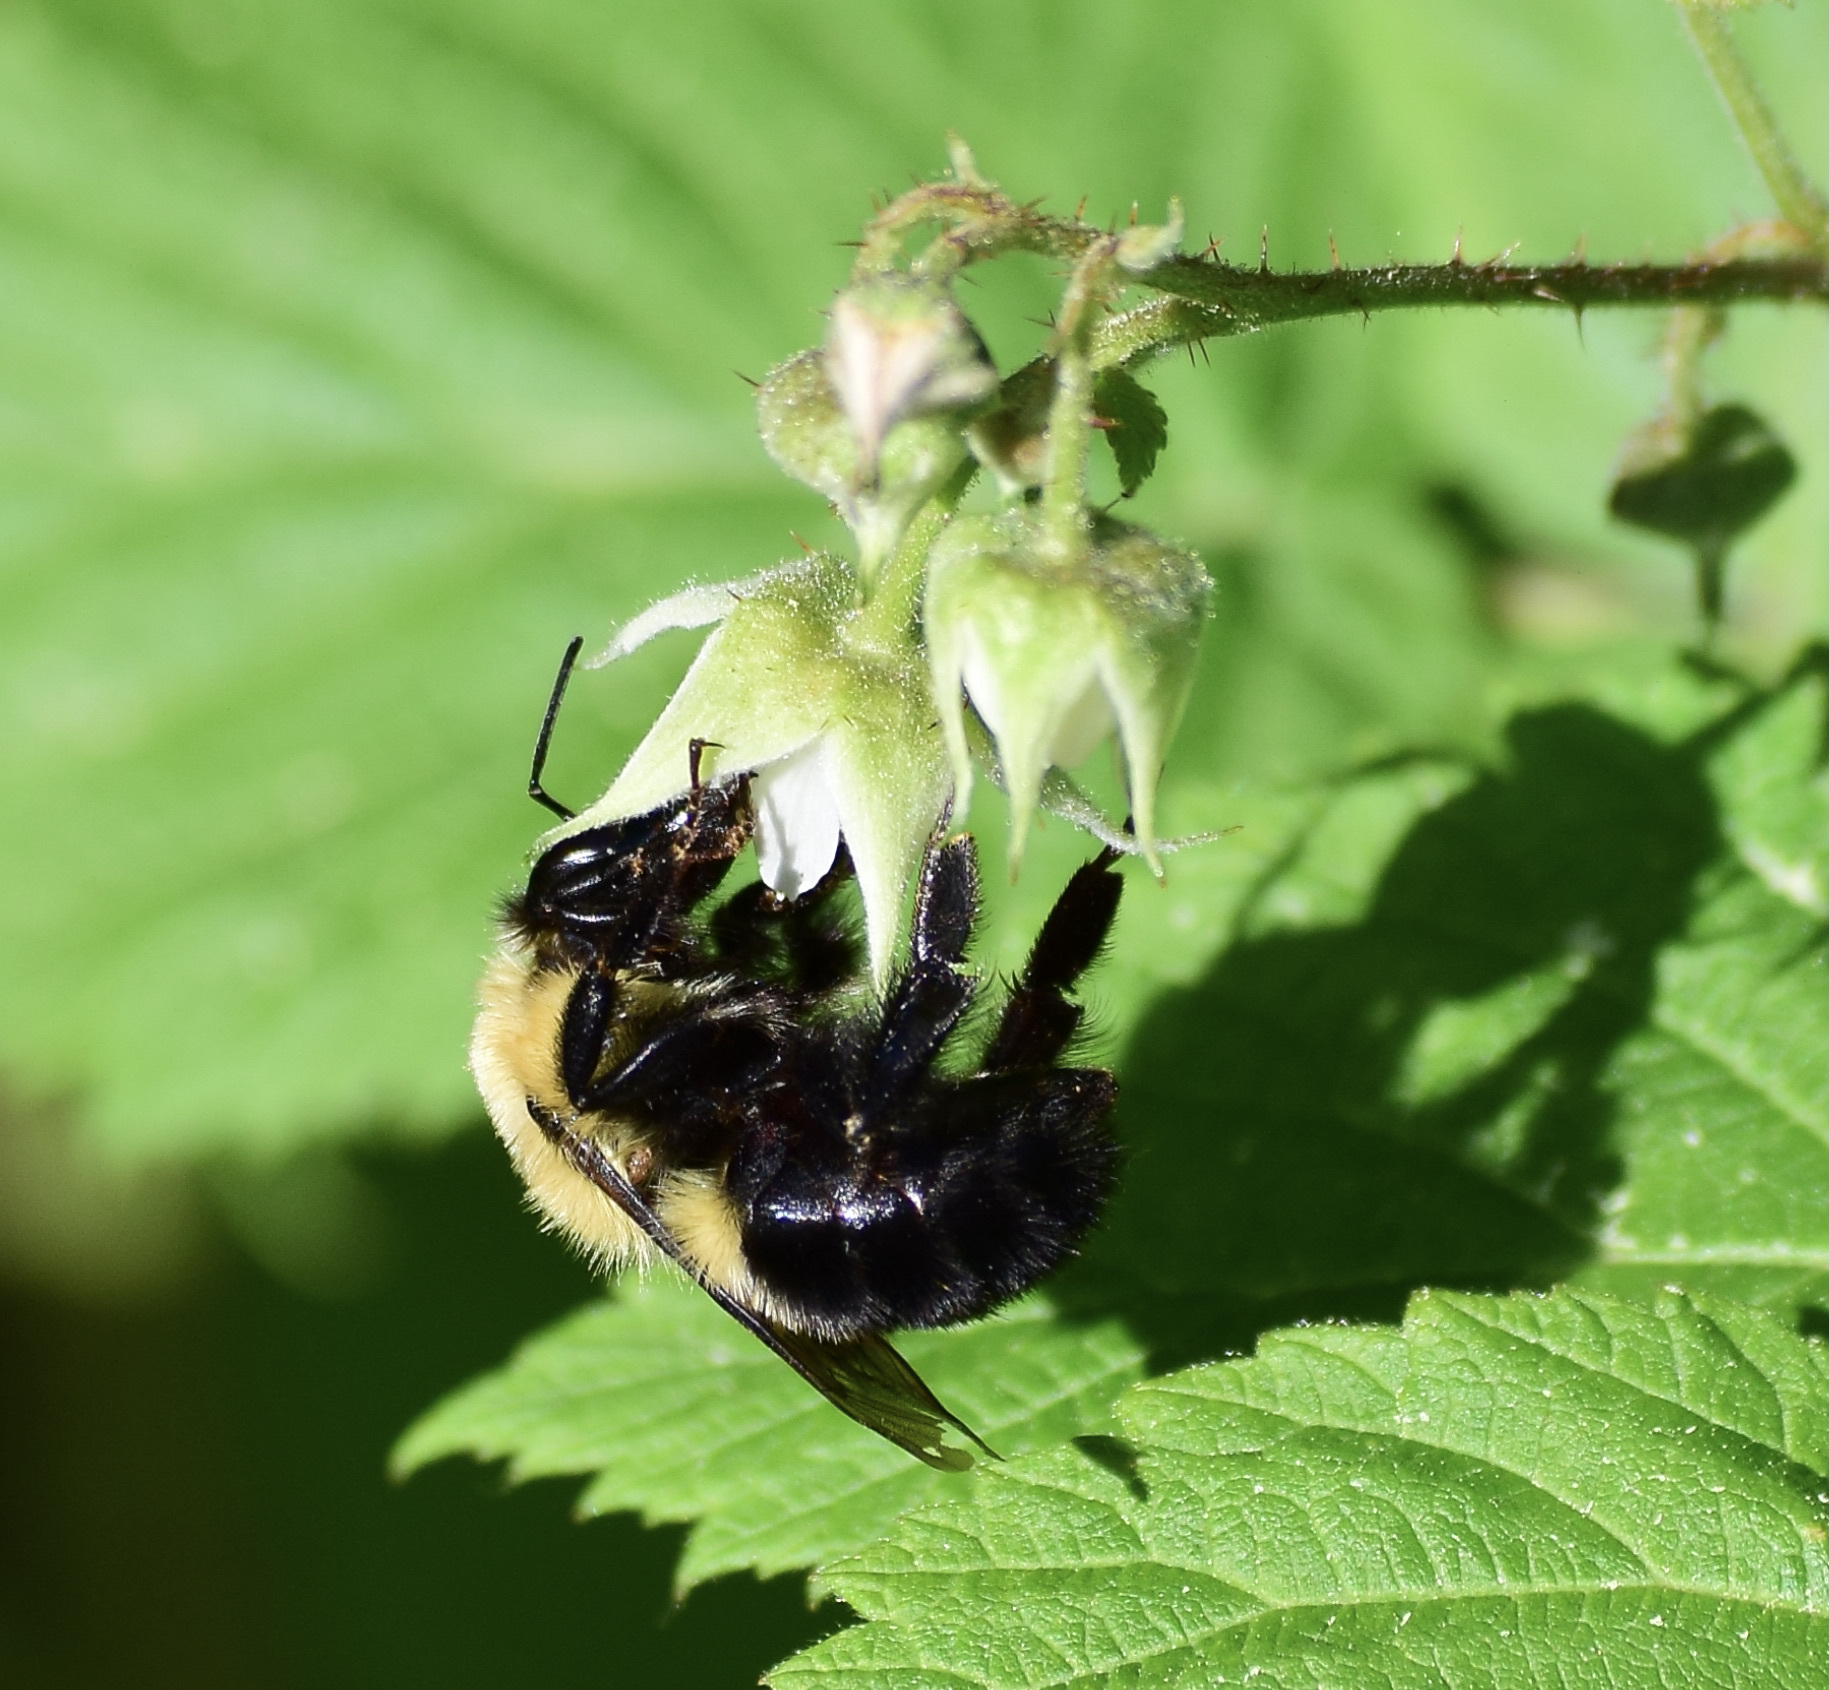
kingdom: Animalia
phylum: Arthropoda
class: Insecta
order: Hymenoptera
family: Apidae
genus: Bombus
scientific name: Bombus bimaculatus
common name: Two-spotted bumble bee
